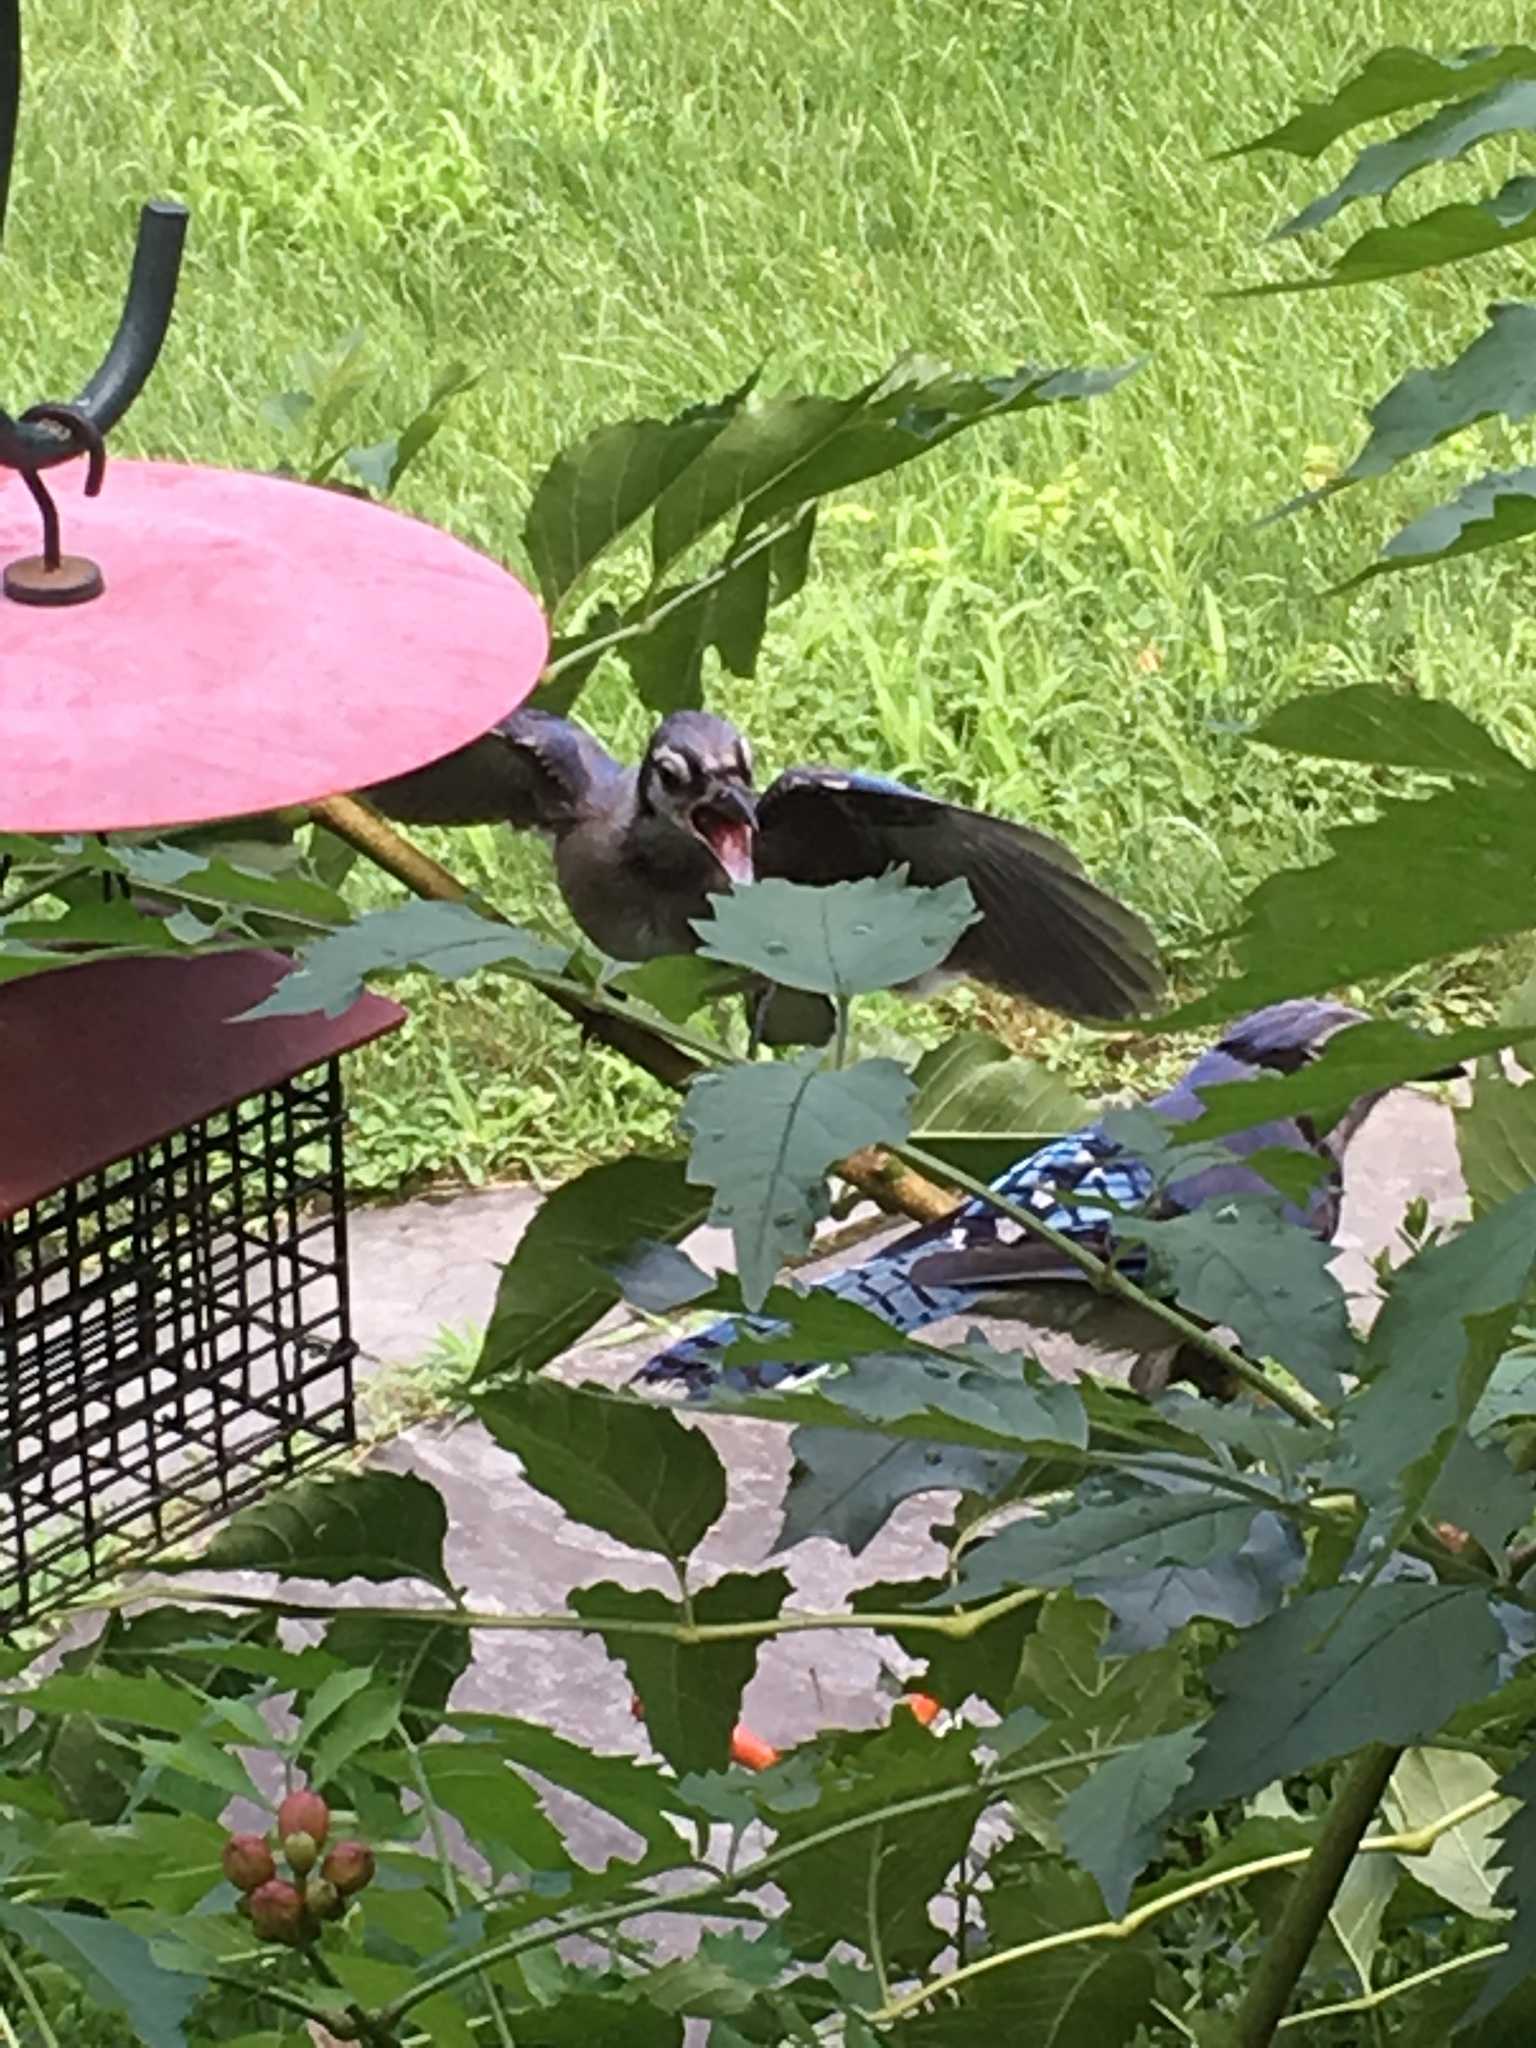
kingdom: Animalia
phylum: Chordata
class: Aves
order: Passeriformes
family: Corvidae
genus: Cyanocitta
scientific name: Cyanocitta cristata
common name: Blue jay
